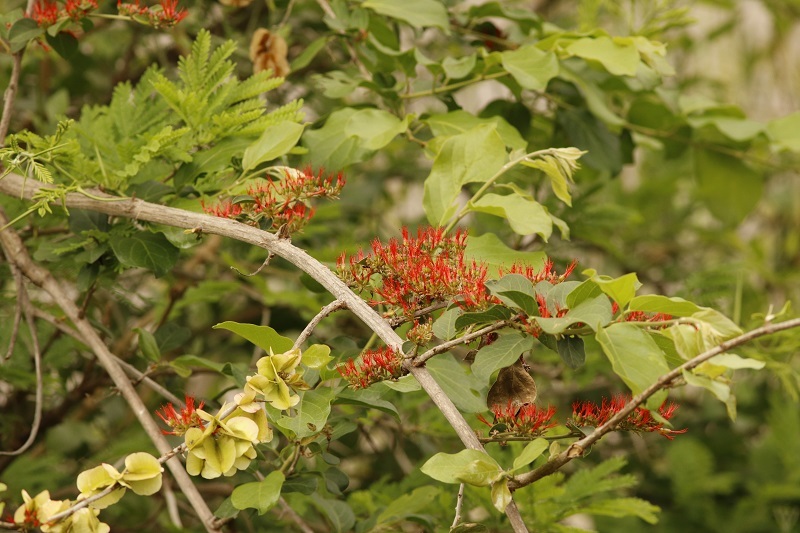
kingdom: Plantae
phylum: Tracheophyta
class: Magnoliopsida
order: Myrtales
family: Combretaceae
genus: Combretum
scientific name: Combretum microphyllum
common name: Burningbush
